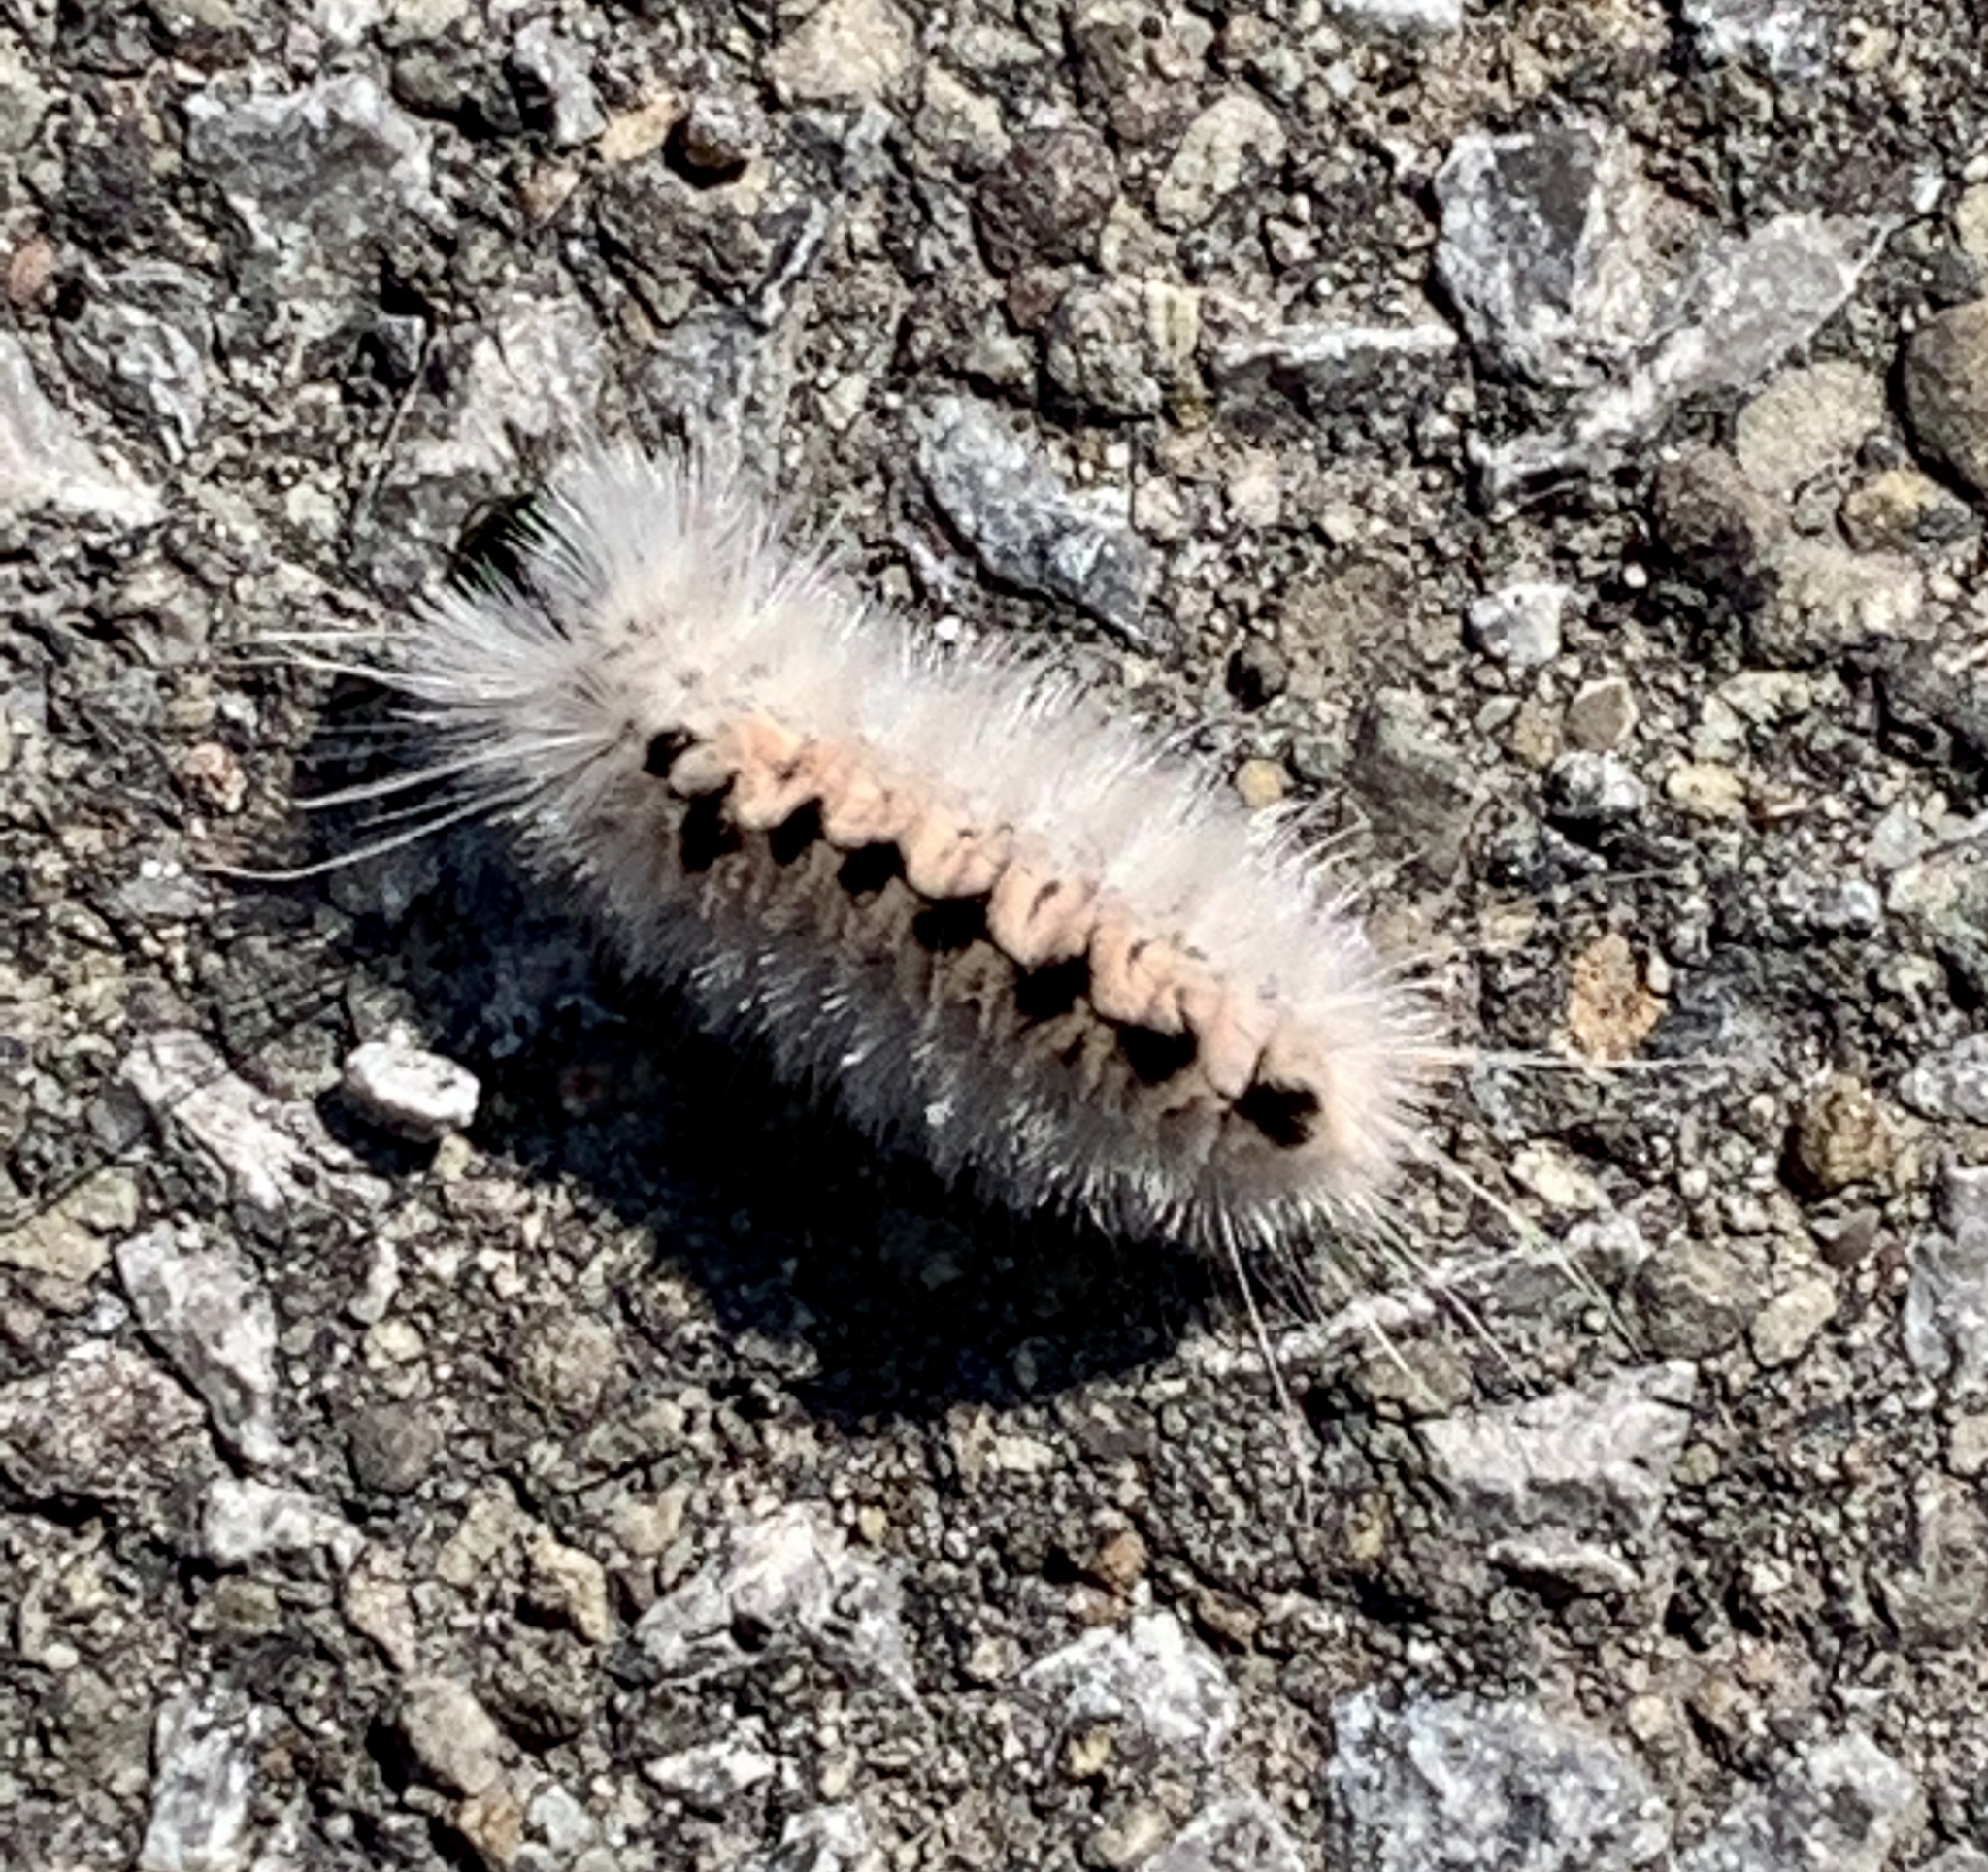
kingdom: Animalia
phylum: Arthropoda
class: Insecta
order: Lepidoptera
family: Erebidae
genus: Lophocampa
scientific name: Lophocampa caryae
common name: Hickory tussock moth
